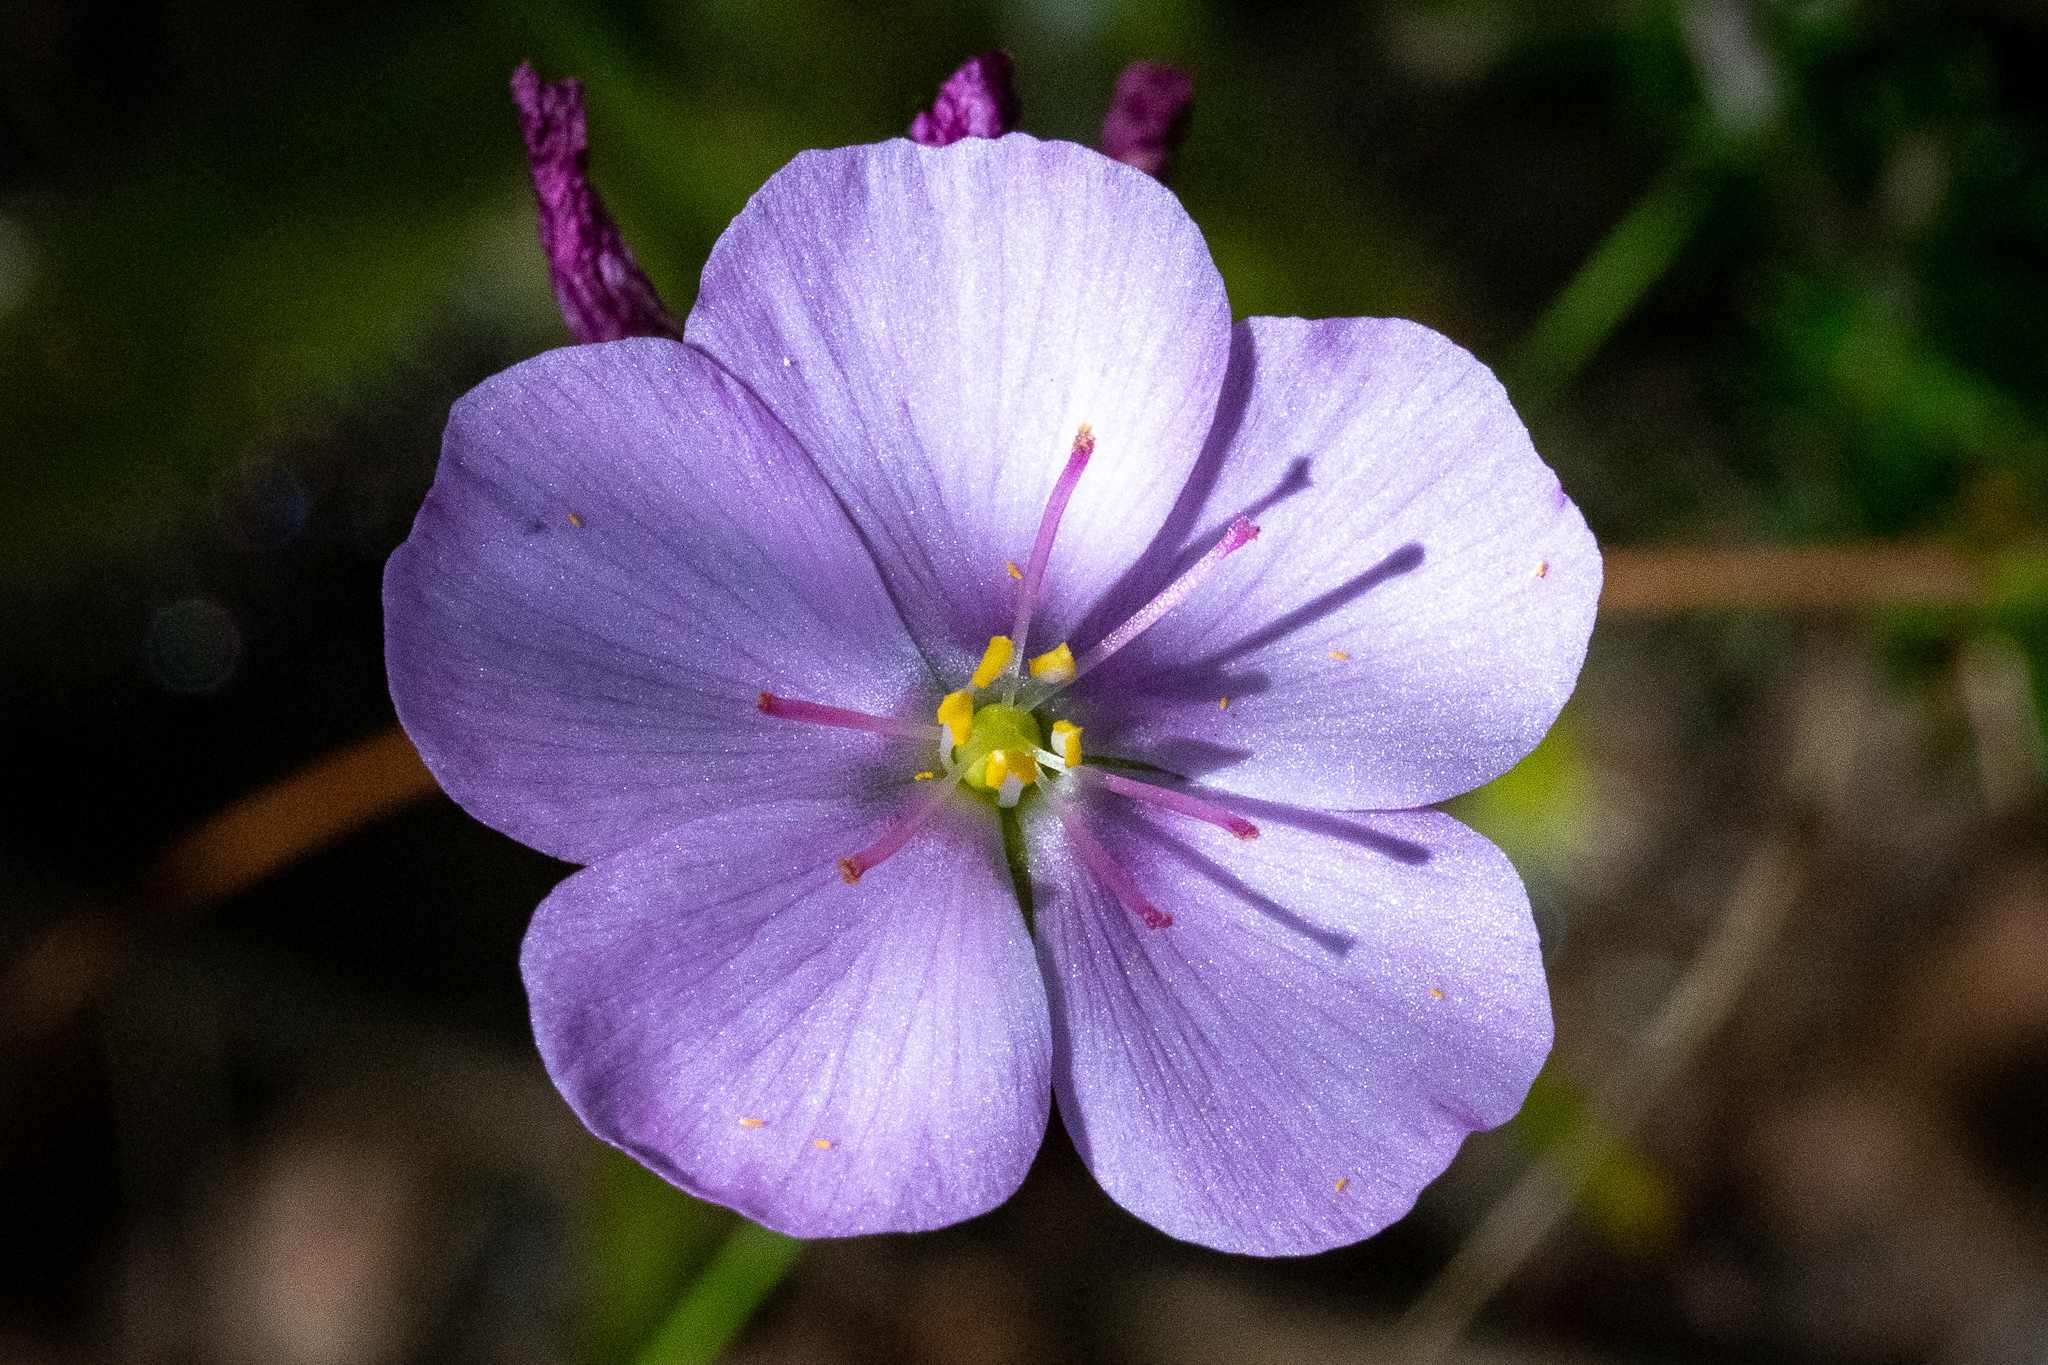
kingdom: Plantae
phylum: Tracheophyta
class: Magnoliopsida
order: Caryophyllales
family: Droseraceae
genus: Drosera
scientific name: Drosera hilaris
